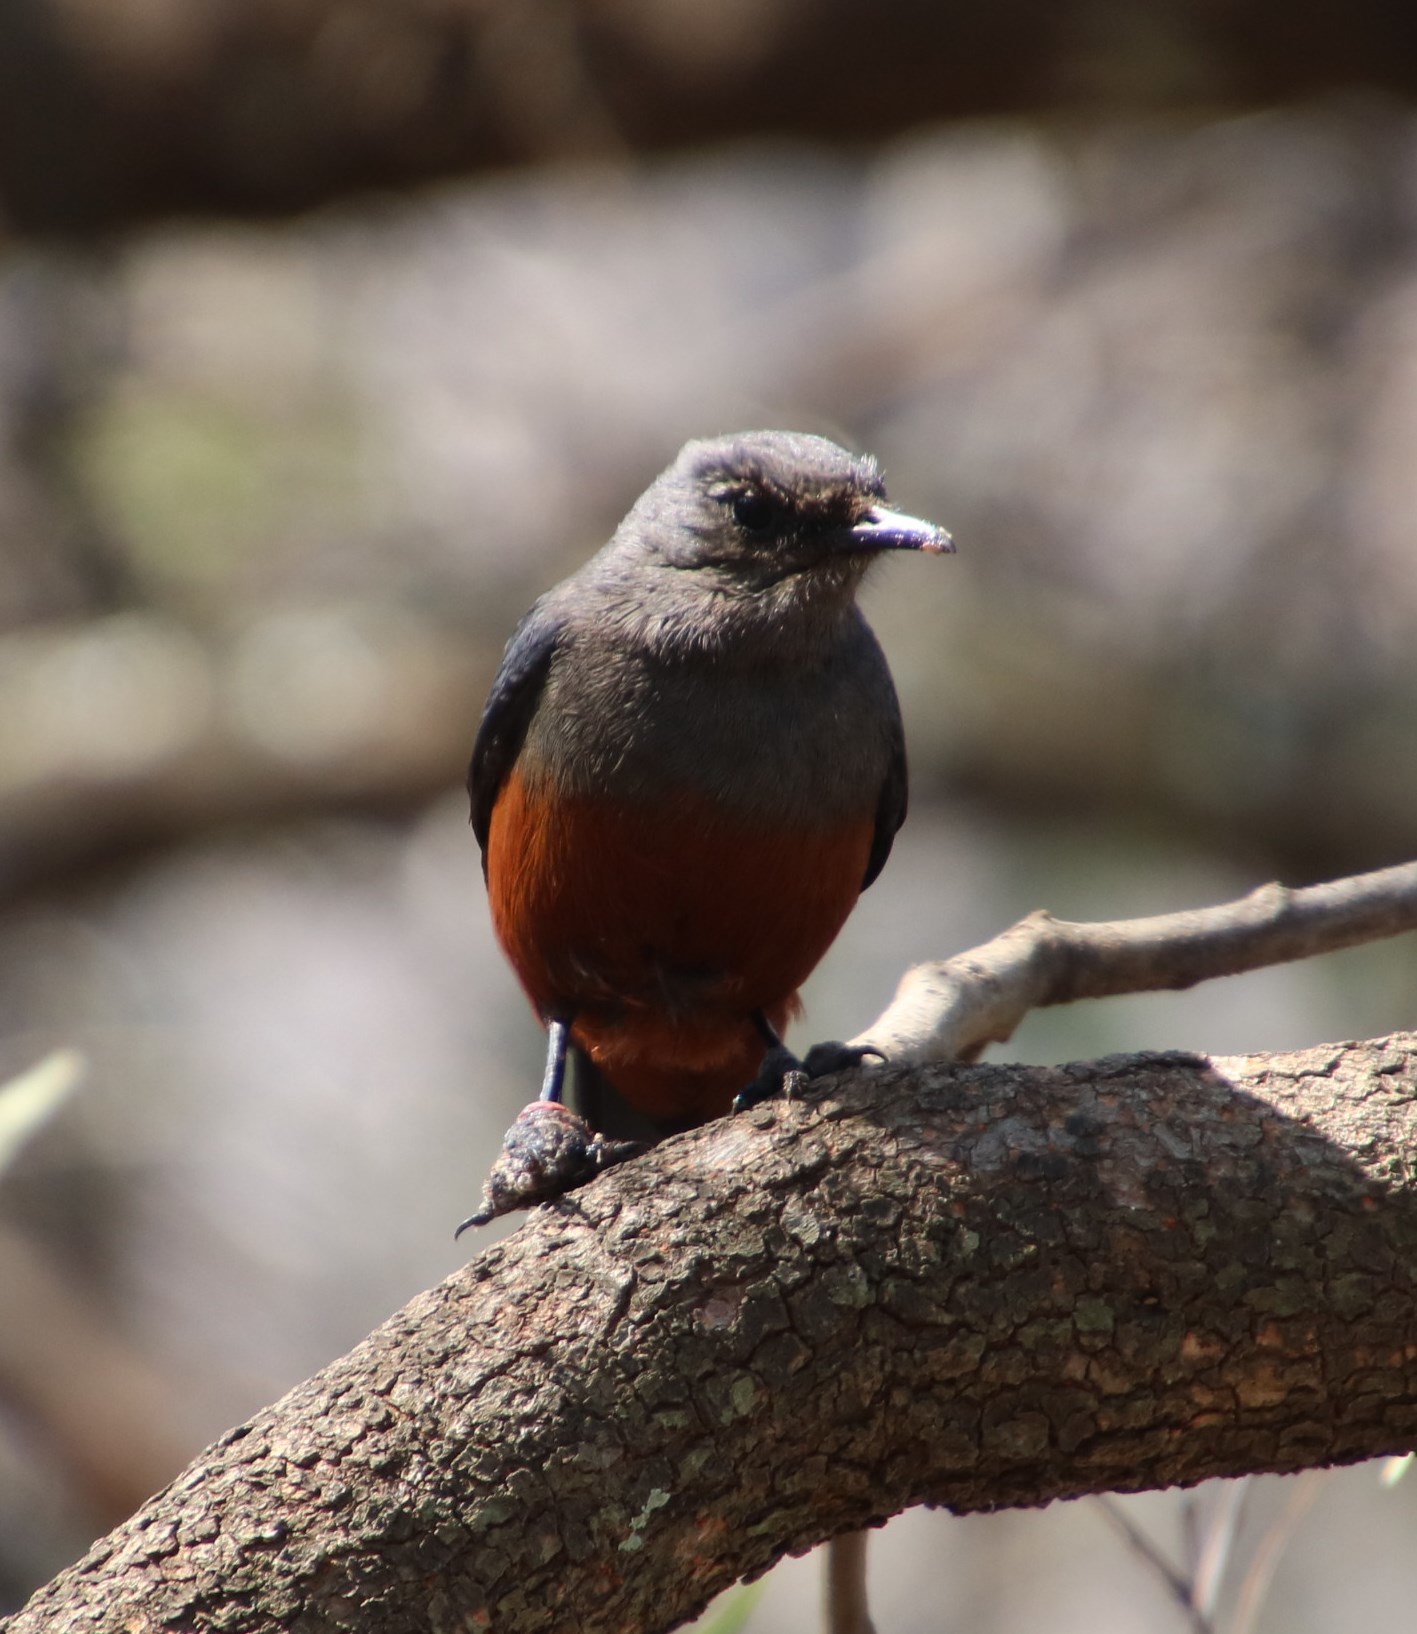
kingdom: Animalia
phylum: Chordata
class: Aves
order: Passeriformes
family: Muscicapidae
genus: Thamnolaea
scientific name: Thamnolaea cinnamomeiventris
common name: Mocking cliff chat
